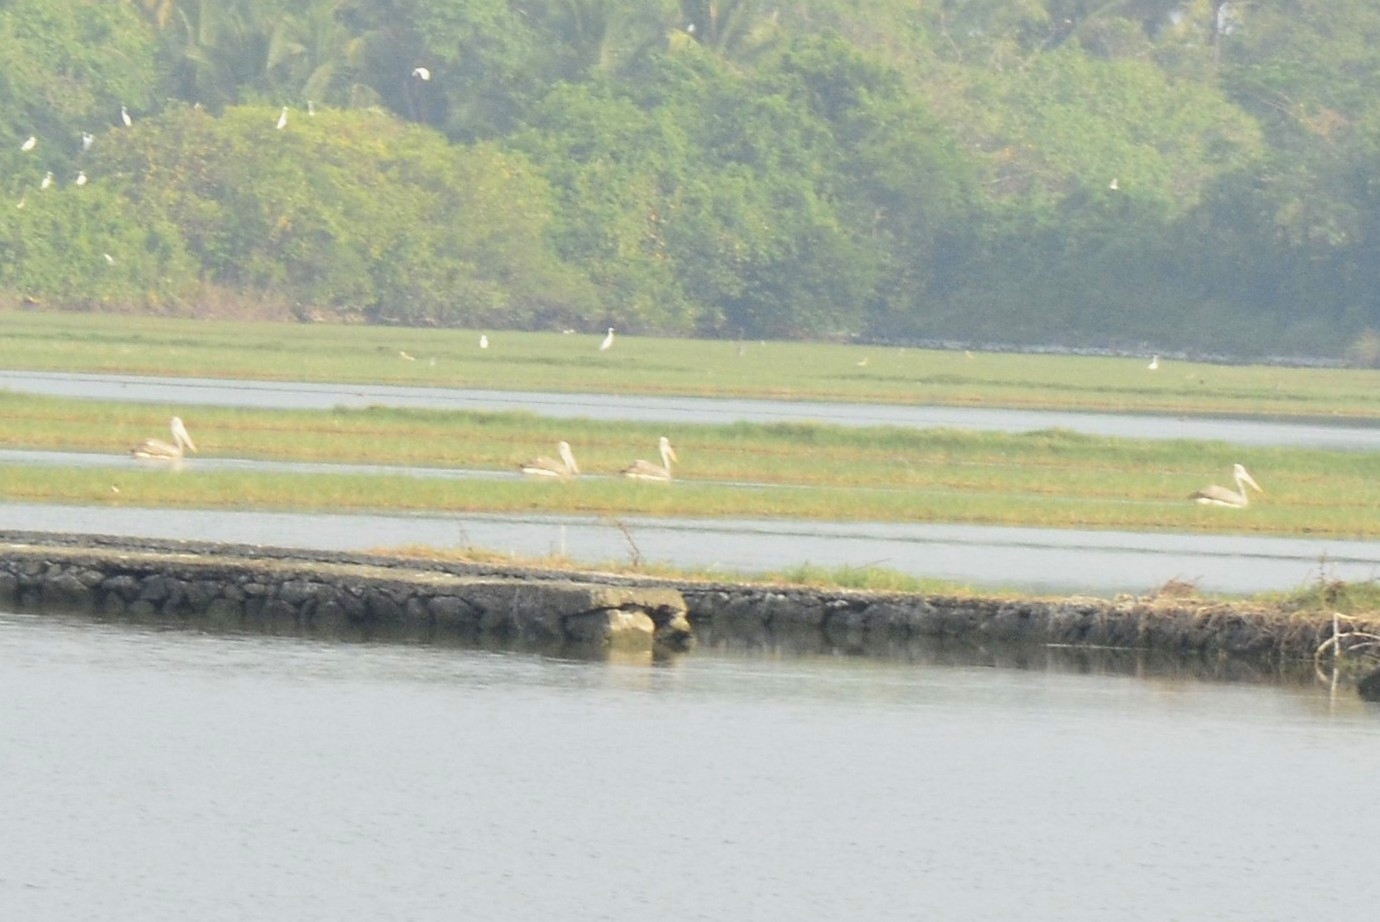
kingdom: Animalia
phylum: Chordata
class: Aves
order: Pelecaniformes
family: Pelecanidae
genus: Pelecanus
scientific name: Pelecanus philippensis
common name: Spot-billed pelican
